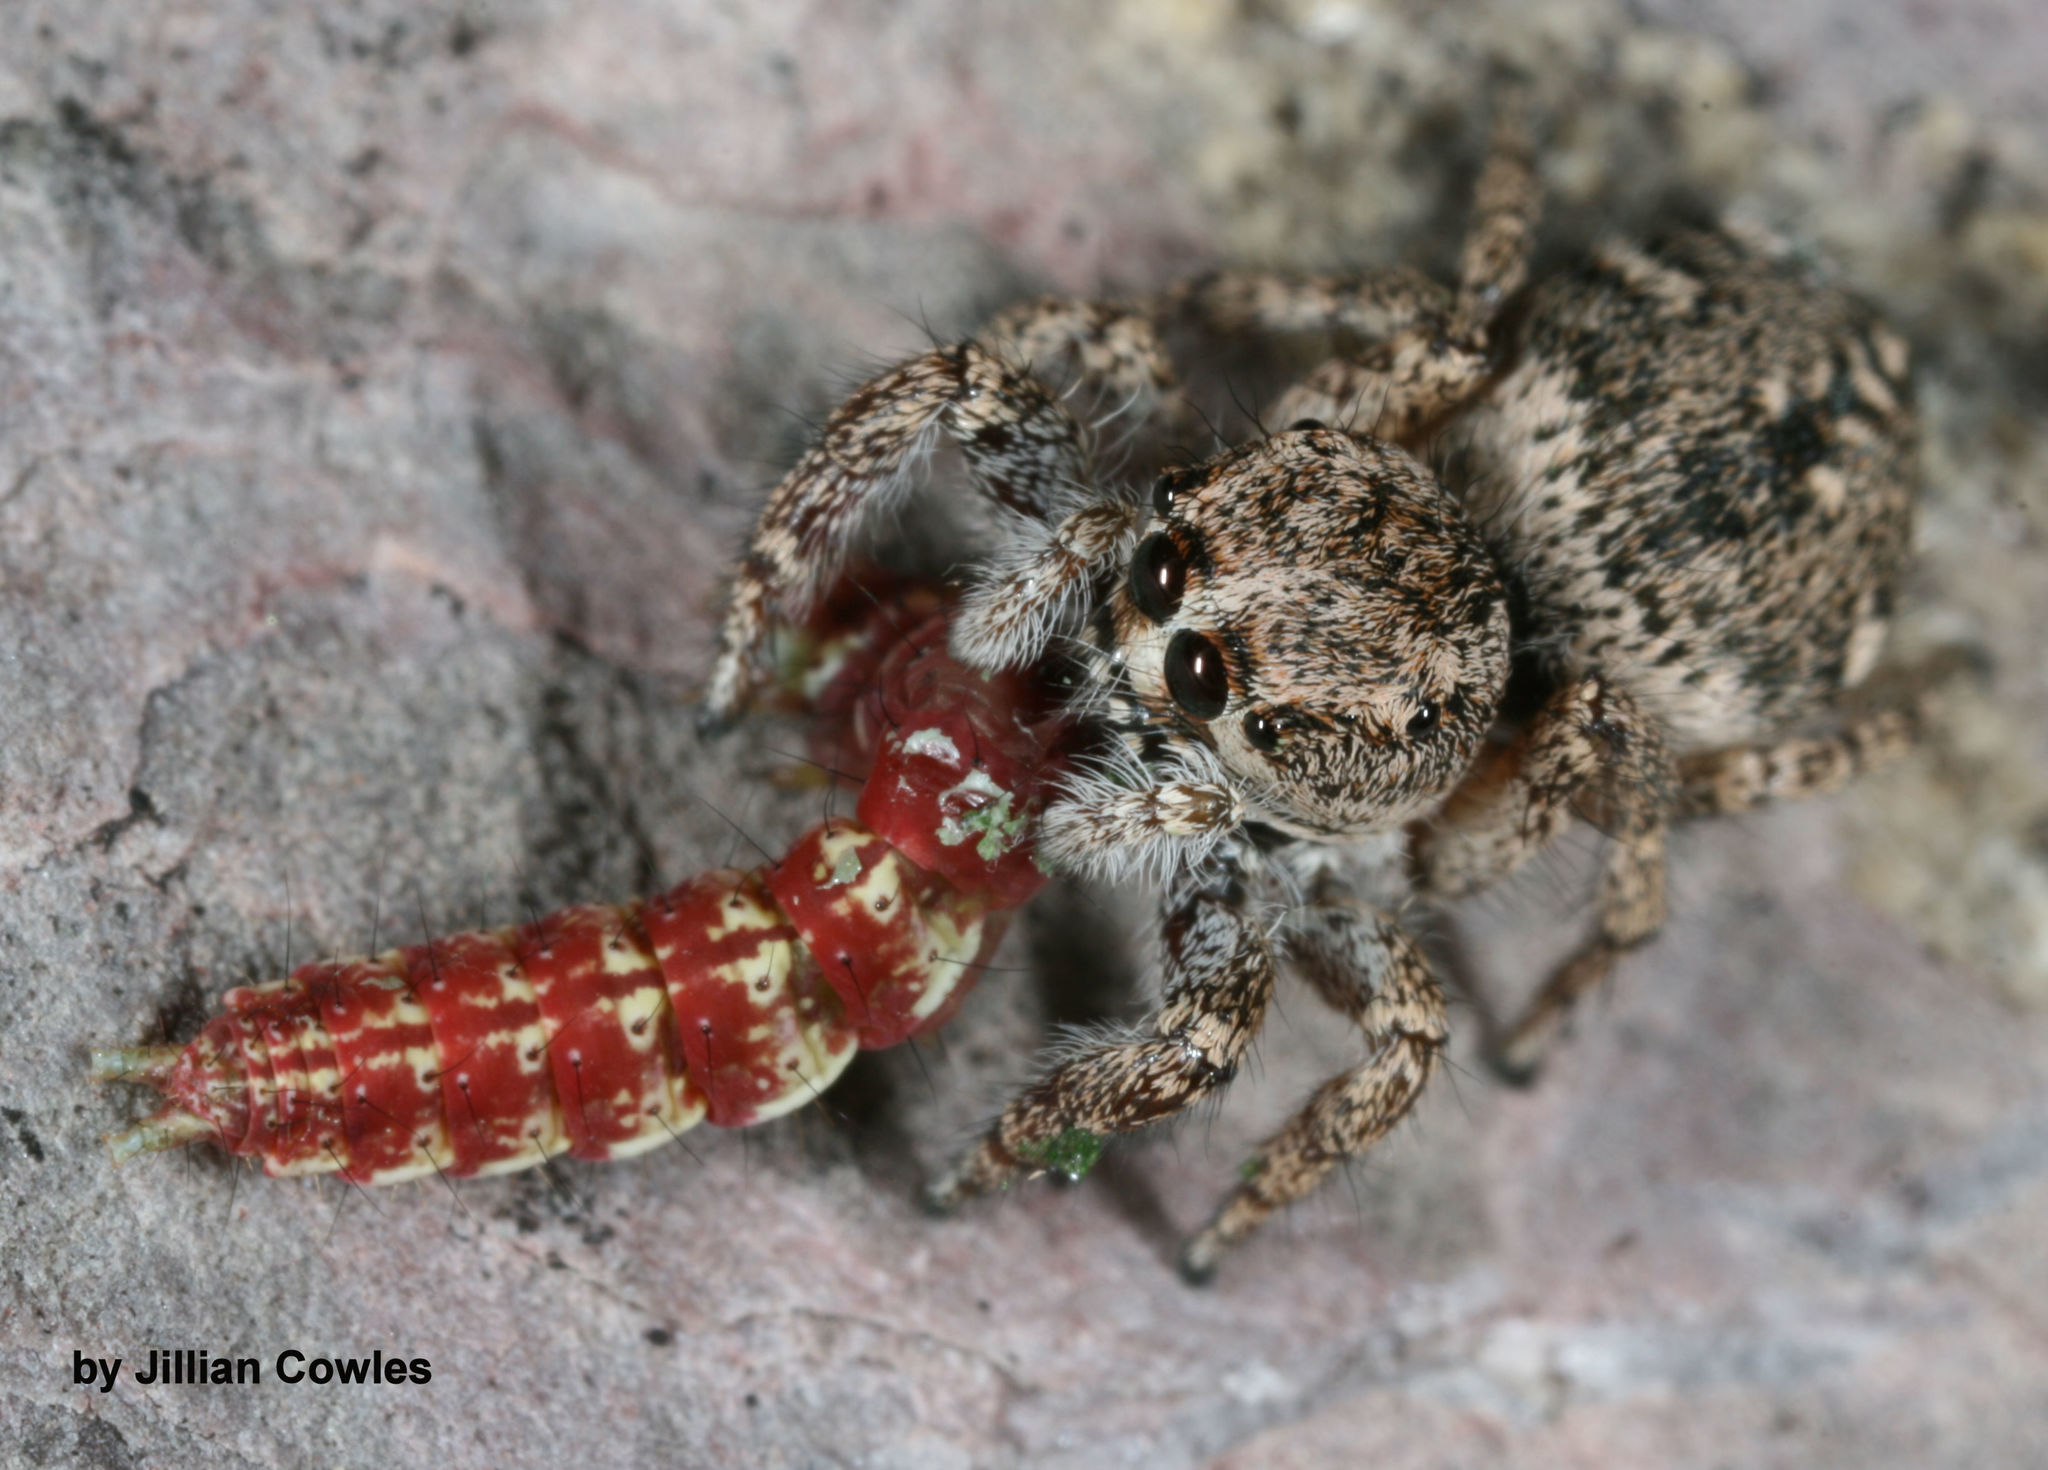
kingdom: Animalia
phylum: Arthropoda
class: Arachnida
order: Araneae
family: Salticidae
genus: Habronattus
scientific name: Habronattus conjunctus
